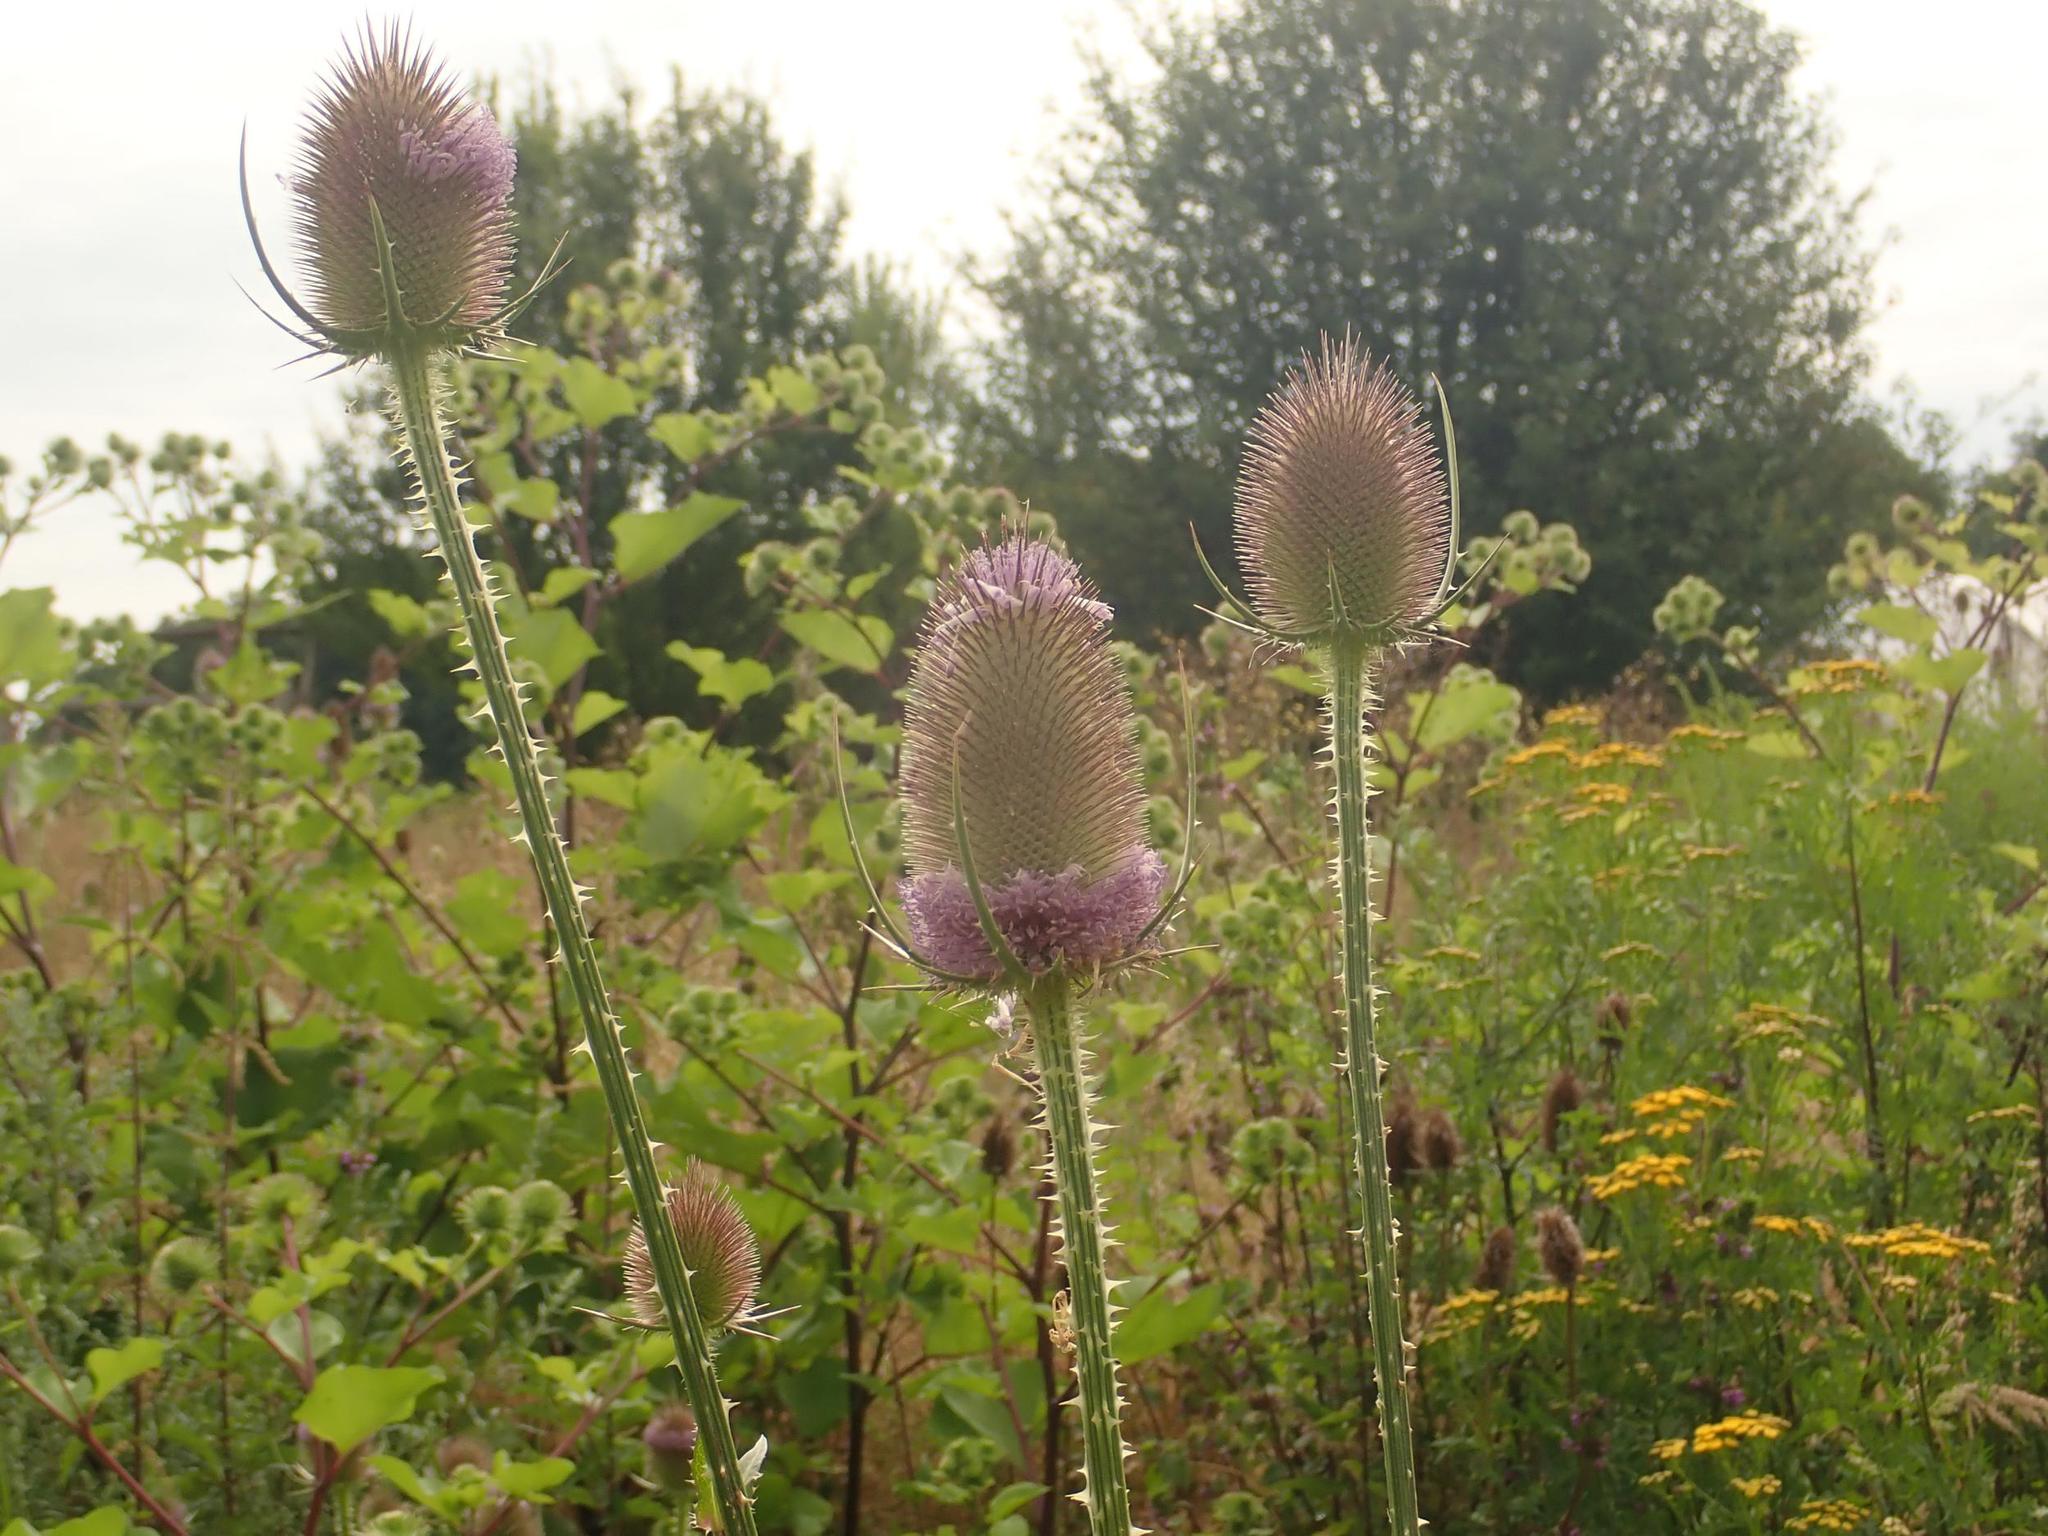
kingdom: Plantae
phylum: Tracheophyta
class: Magnoliopsida
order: Dipsacales
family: Caprifoliaceae
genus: Dipsacus
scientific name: Dipsacus fullonum
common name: Teasel
